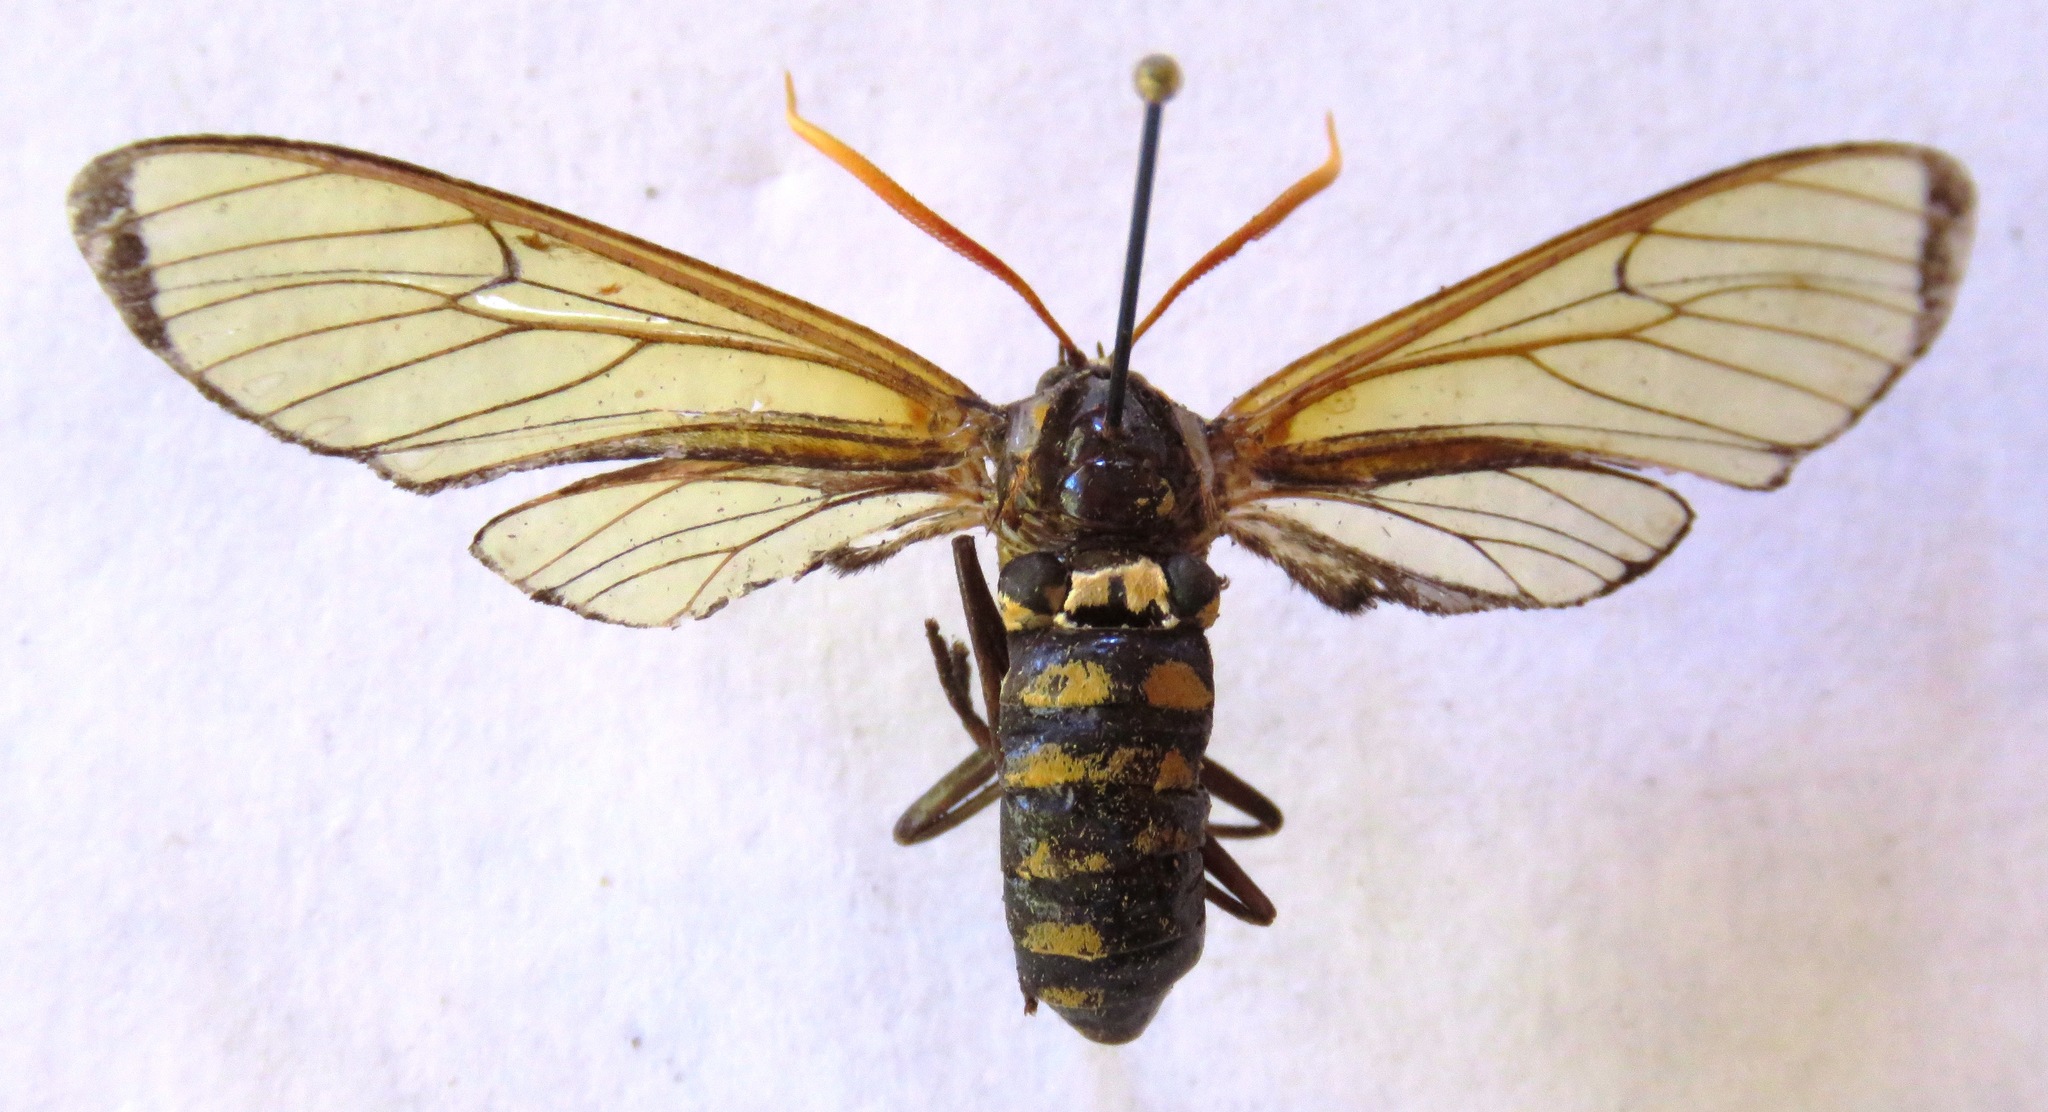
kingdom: Animalia
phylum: Arthropoda
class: Insecta
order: Lepidoptera
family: Erebidae
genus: Isanthrene
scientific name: Isanthrene cazador
